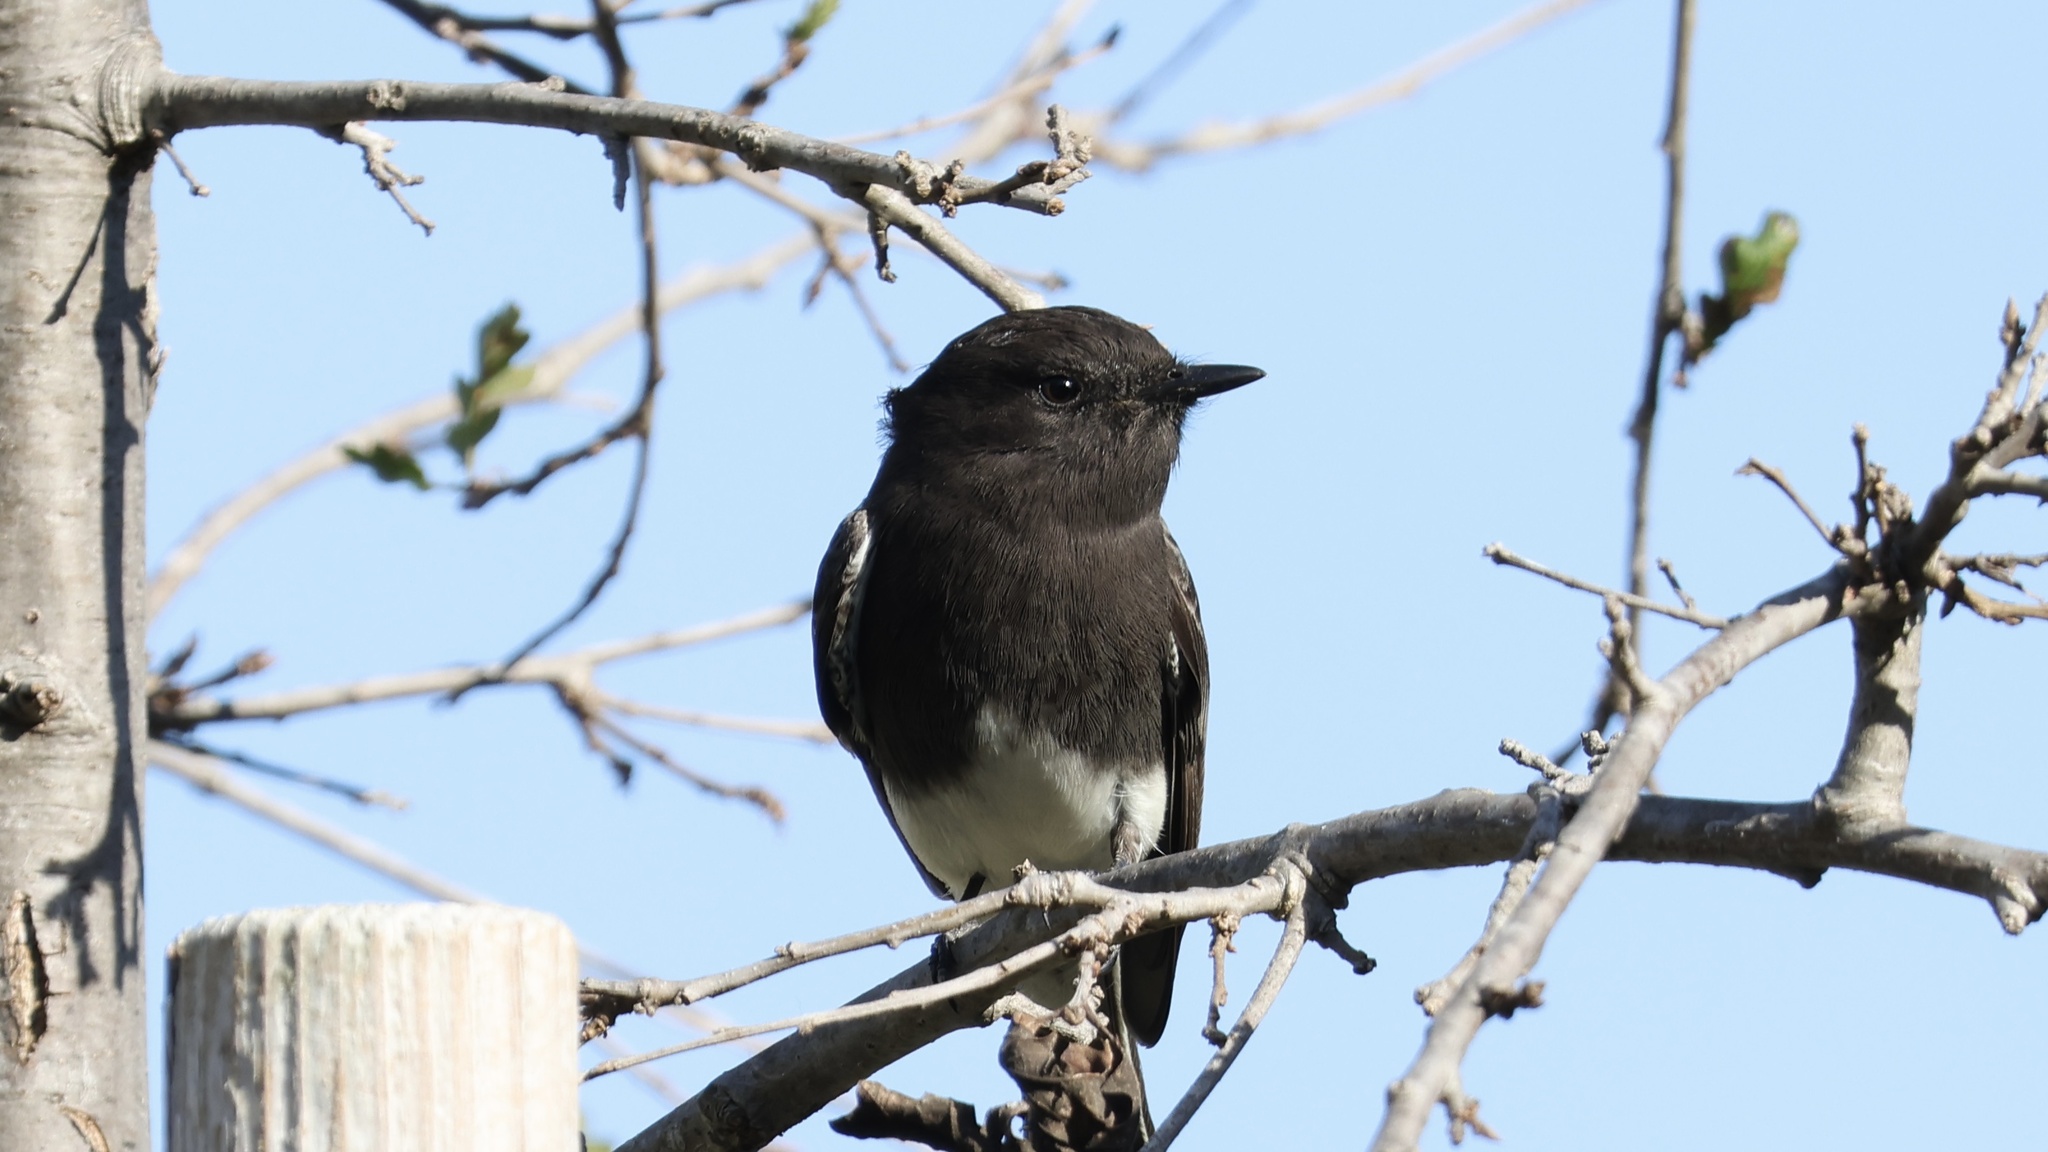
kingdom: Animalia
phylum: Chordata
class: Aves
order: Passeriformes
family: Tyrannidae
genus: Sayornis
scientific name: Sayornis nigricans
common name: Black phoebe
